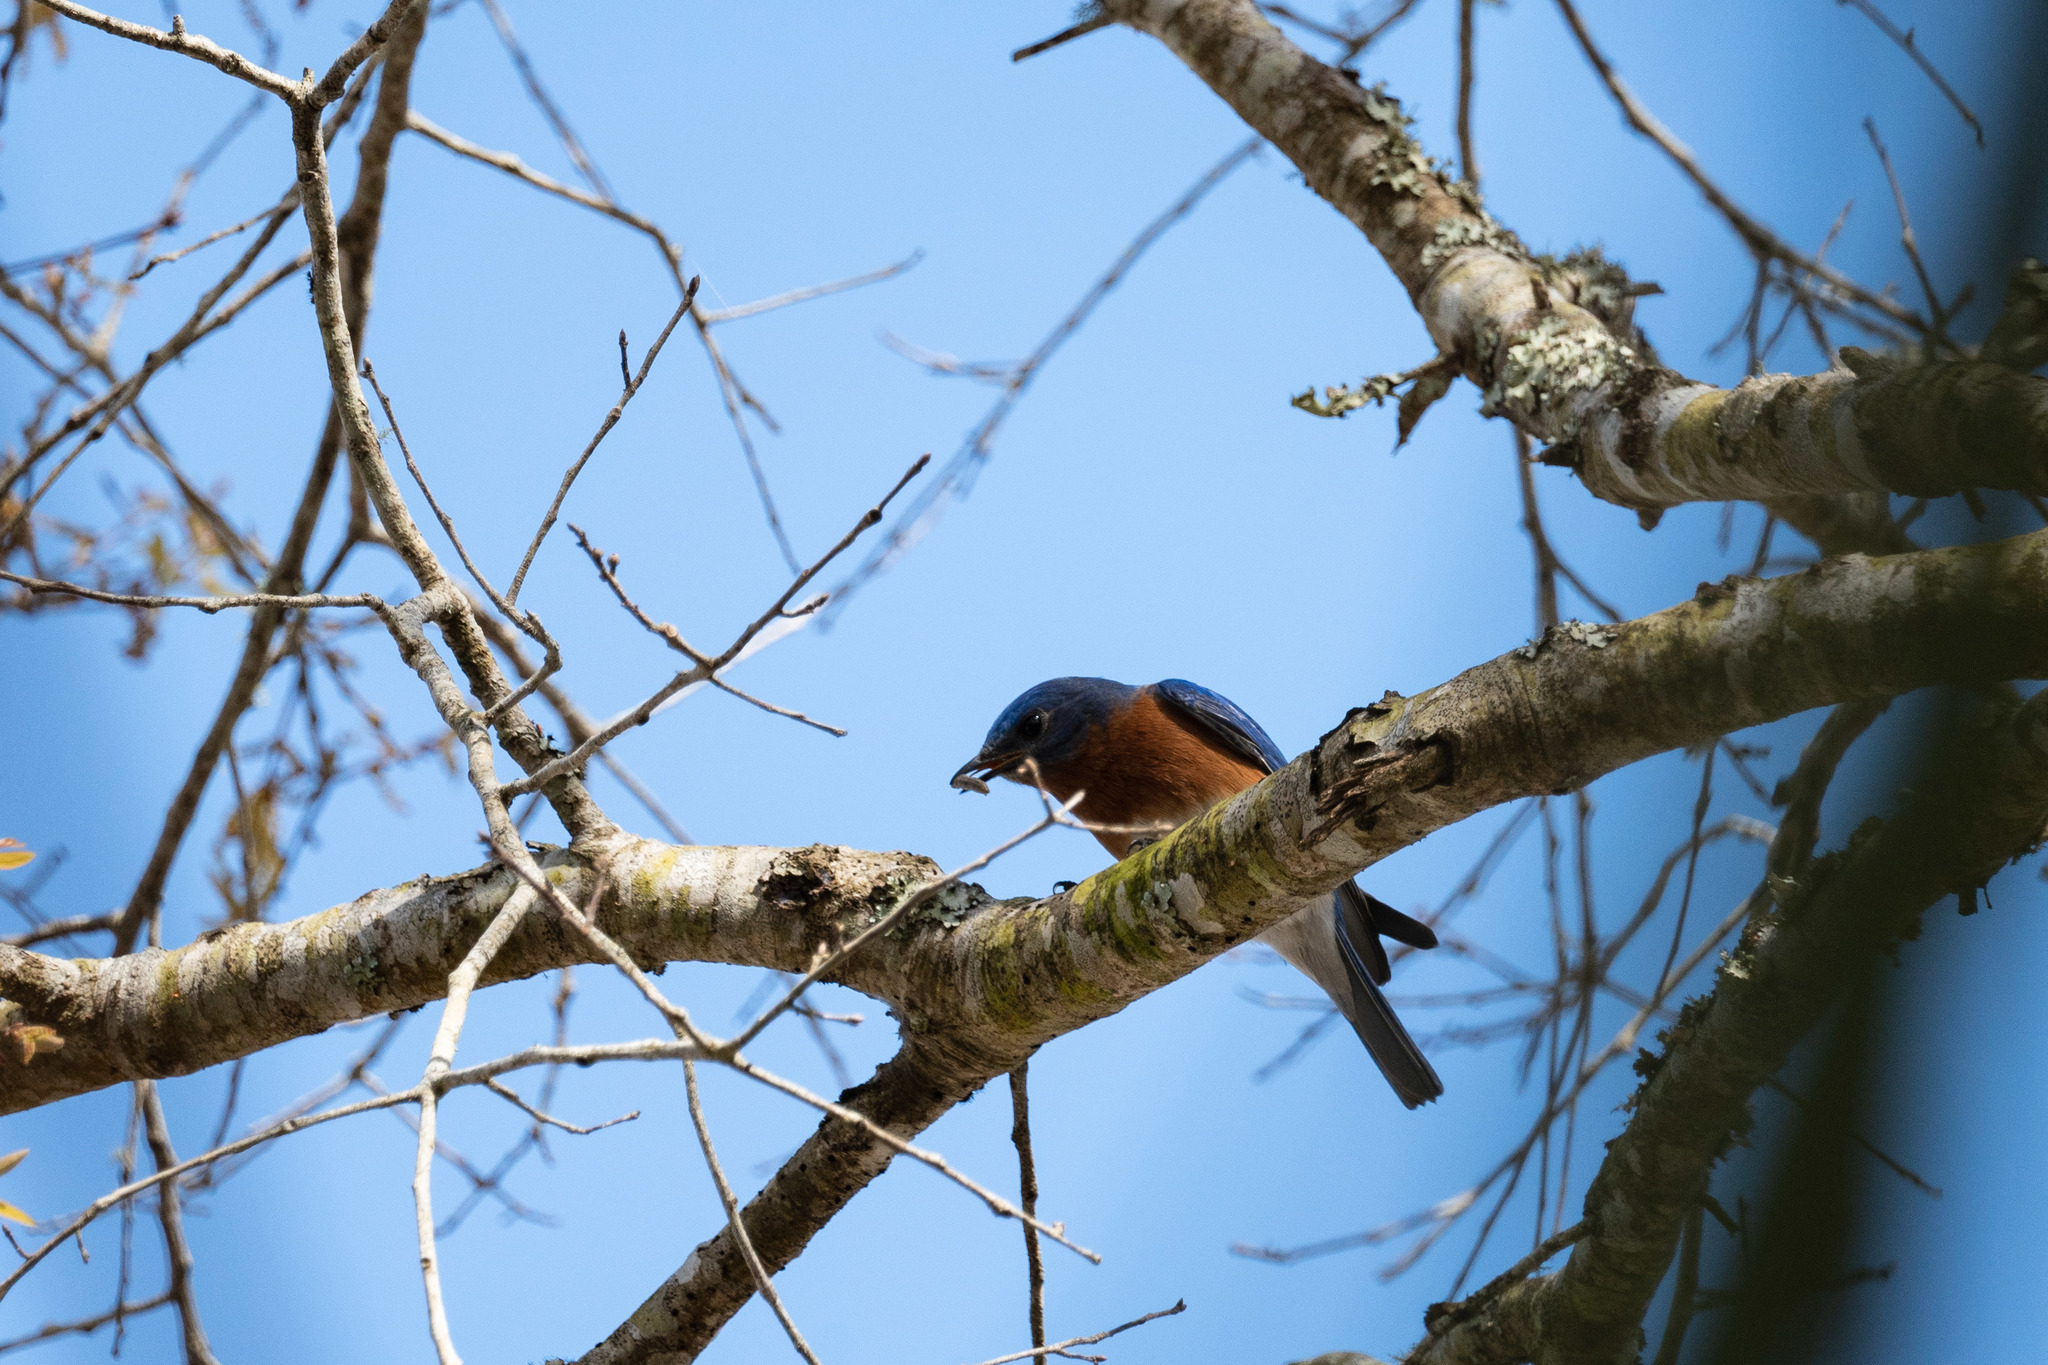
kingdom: Animalia
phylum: Chordata
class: Aves
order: Passeriformes
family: Turdidae
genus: Sialia
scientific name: Sialia sialis
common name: Eastern bluebird
